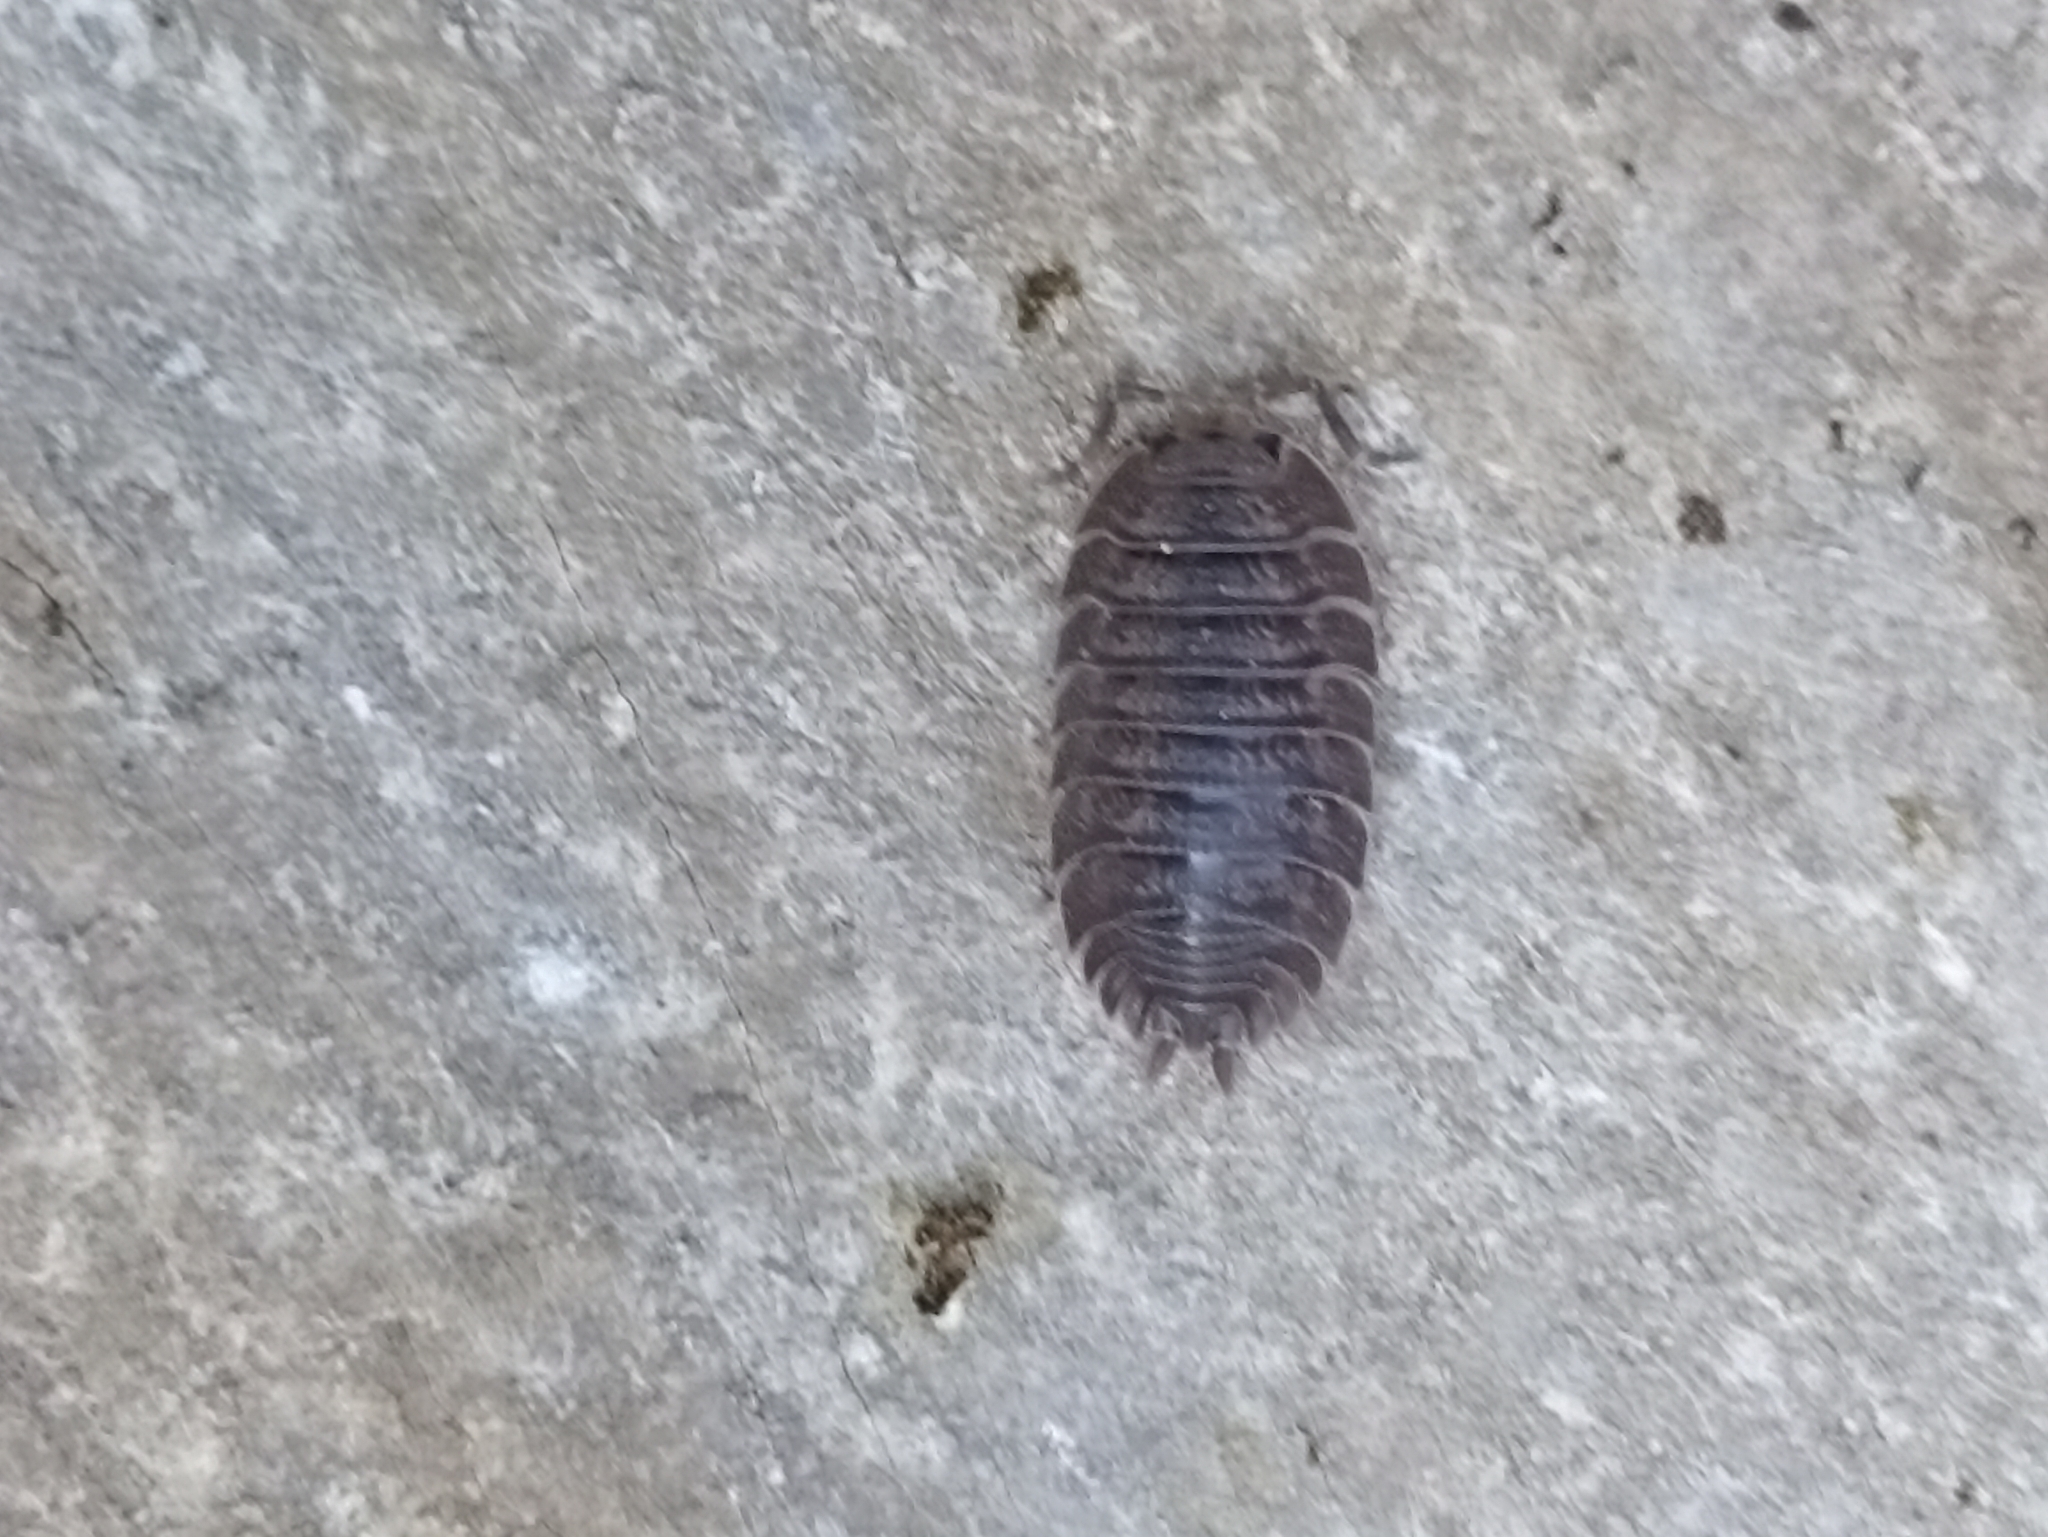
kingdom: Animalia
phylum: Arthropoda
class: Malacostraca
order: Isopoda
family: Porcellionidae
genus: Porcellio
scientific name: Porcellio dilatatus
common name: Isopod
